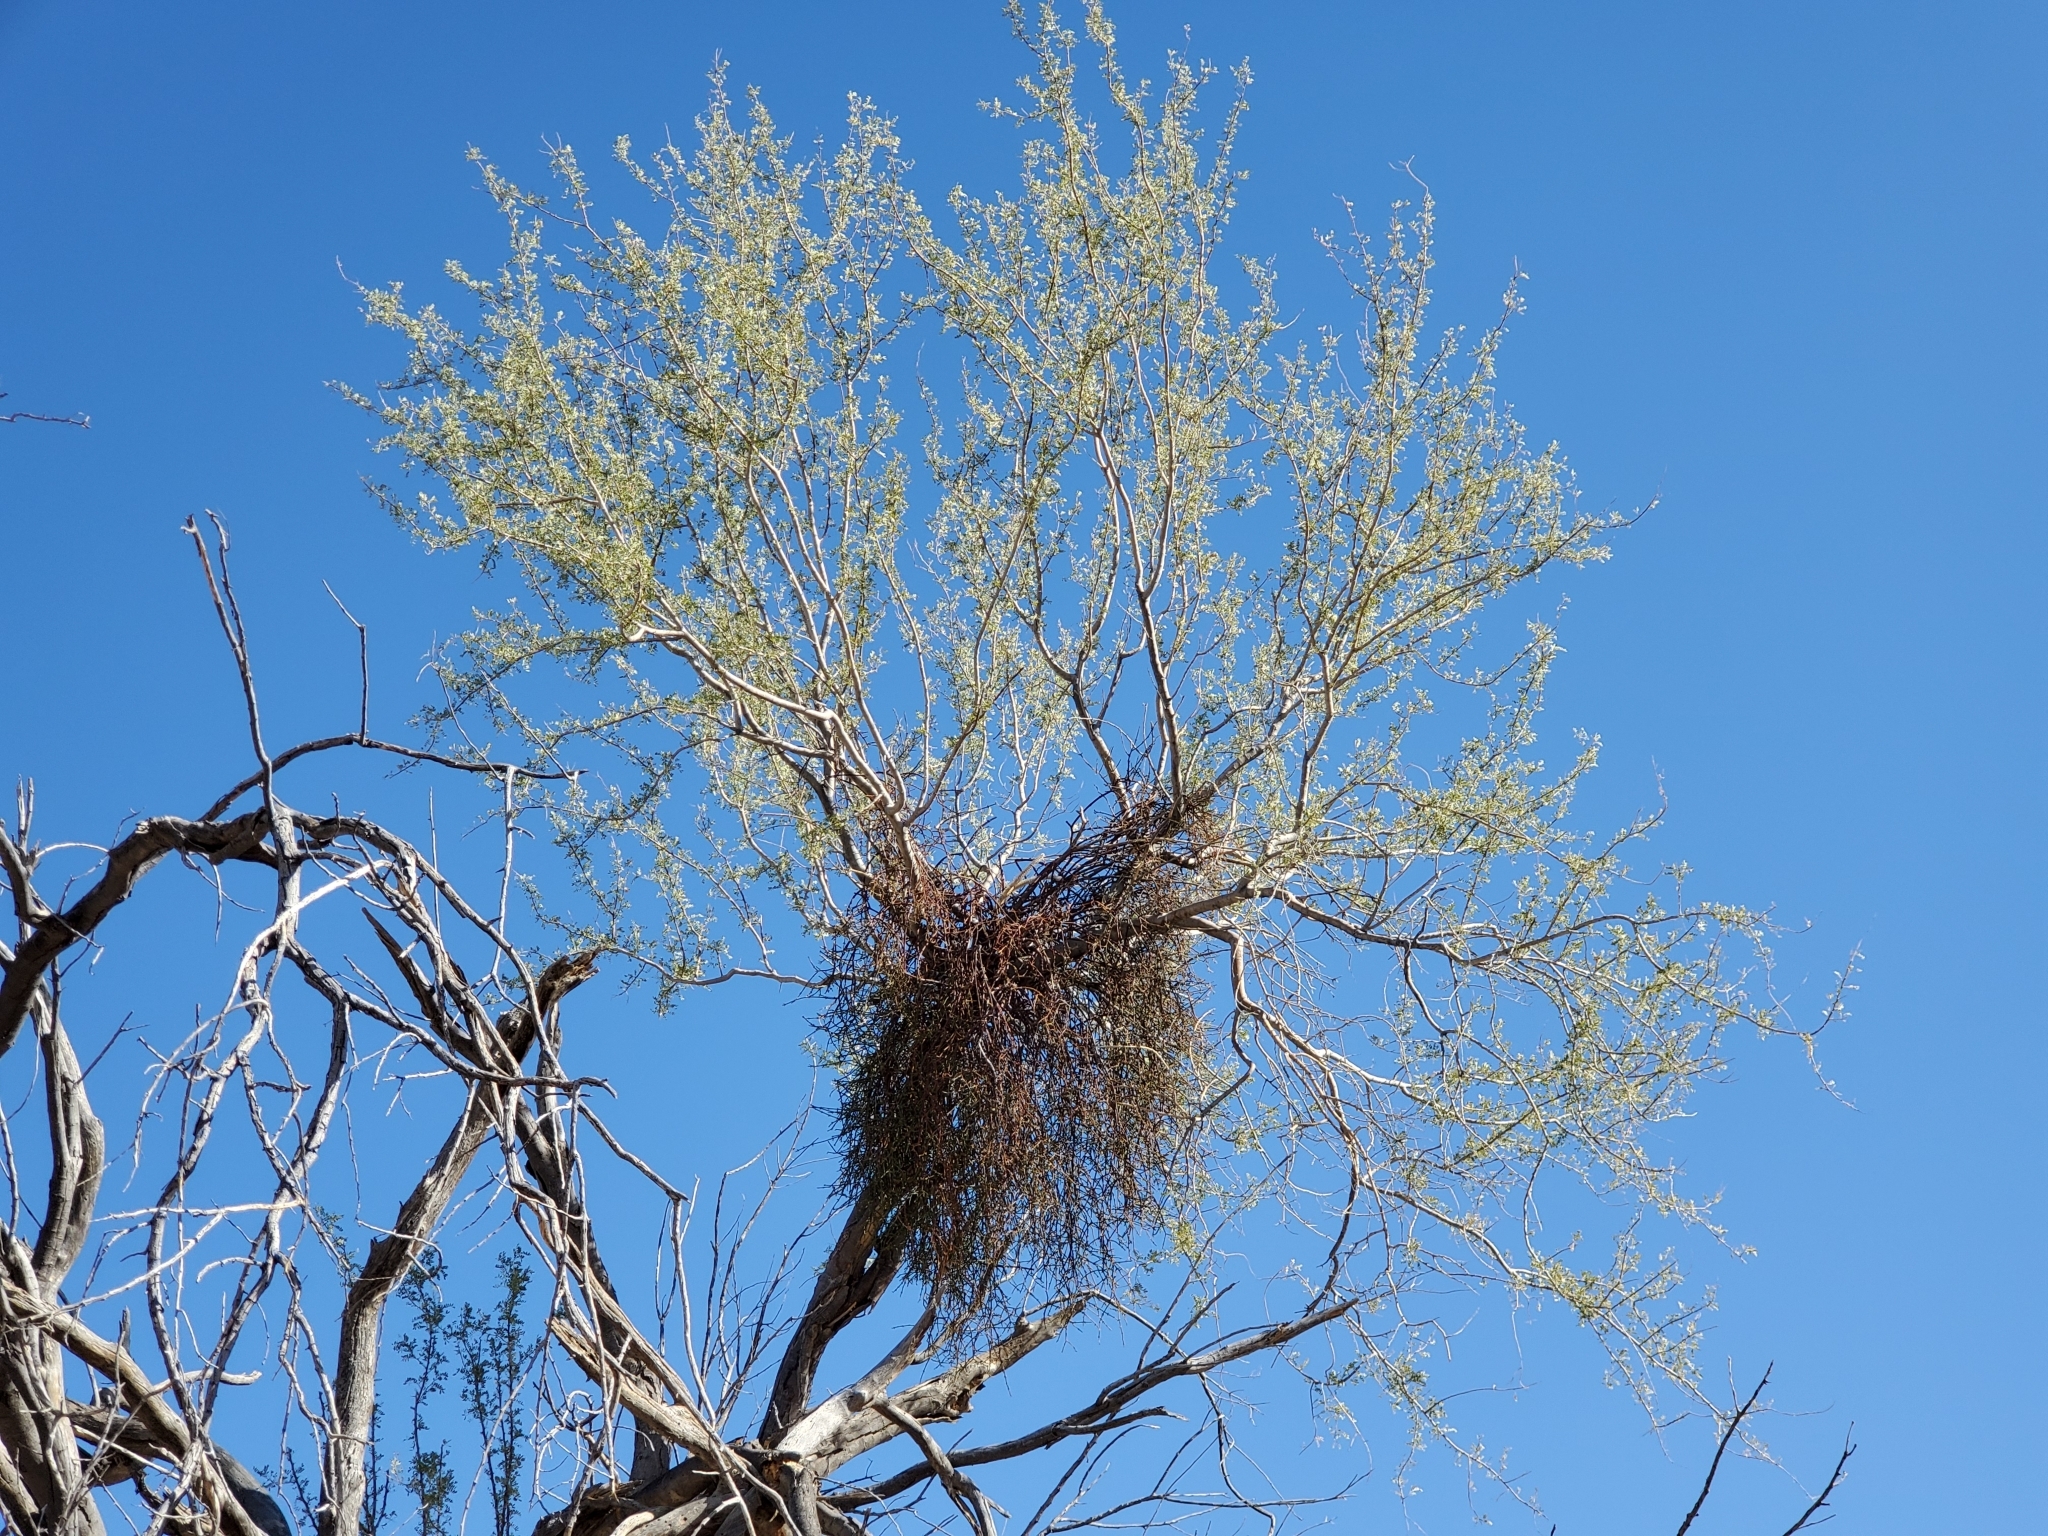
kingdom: Plantae
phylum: Tracheophyta
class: Magnoliopsida
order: Santalales
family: Viscaceae
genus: Phoradendron
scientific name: Phoradendron californicum
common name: Acacia mistletoe
